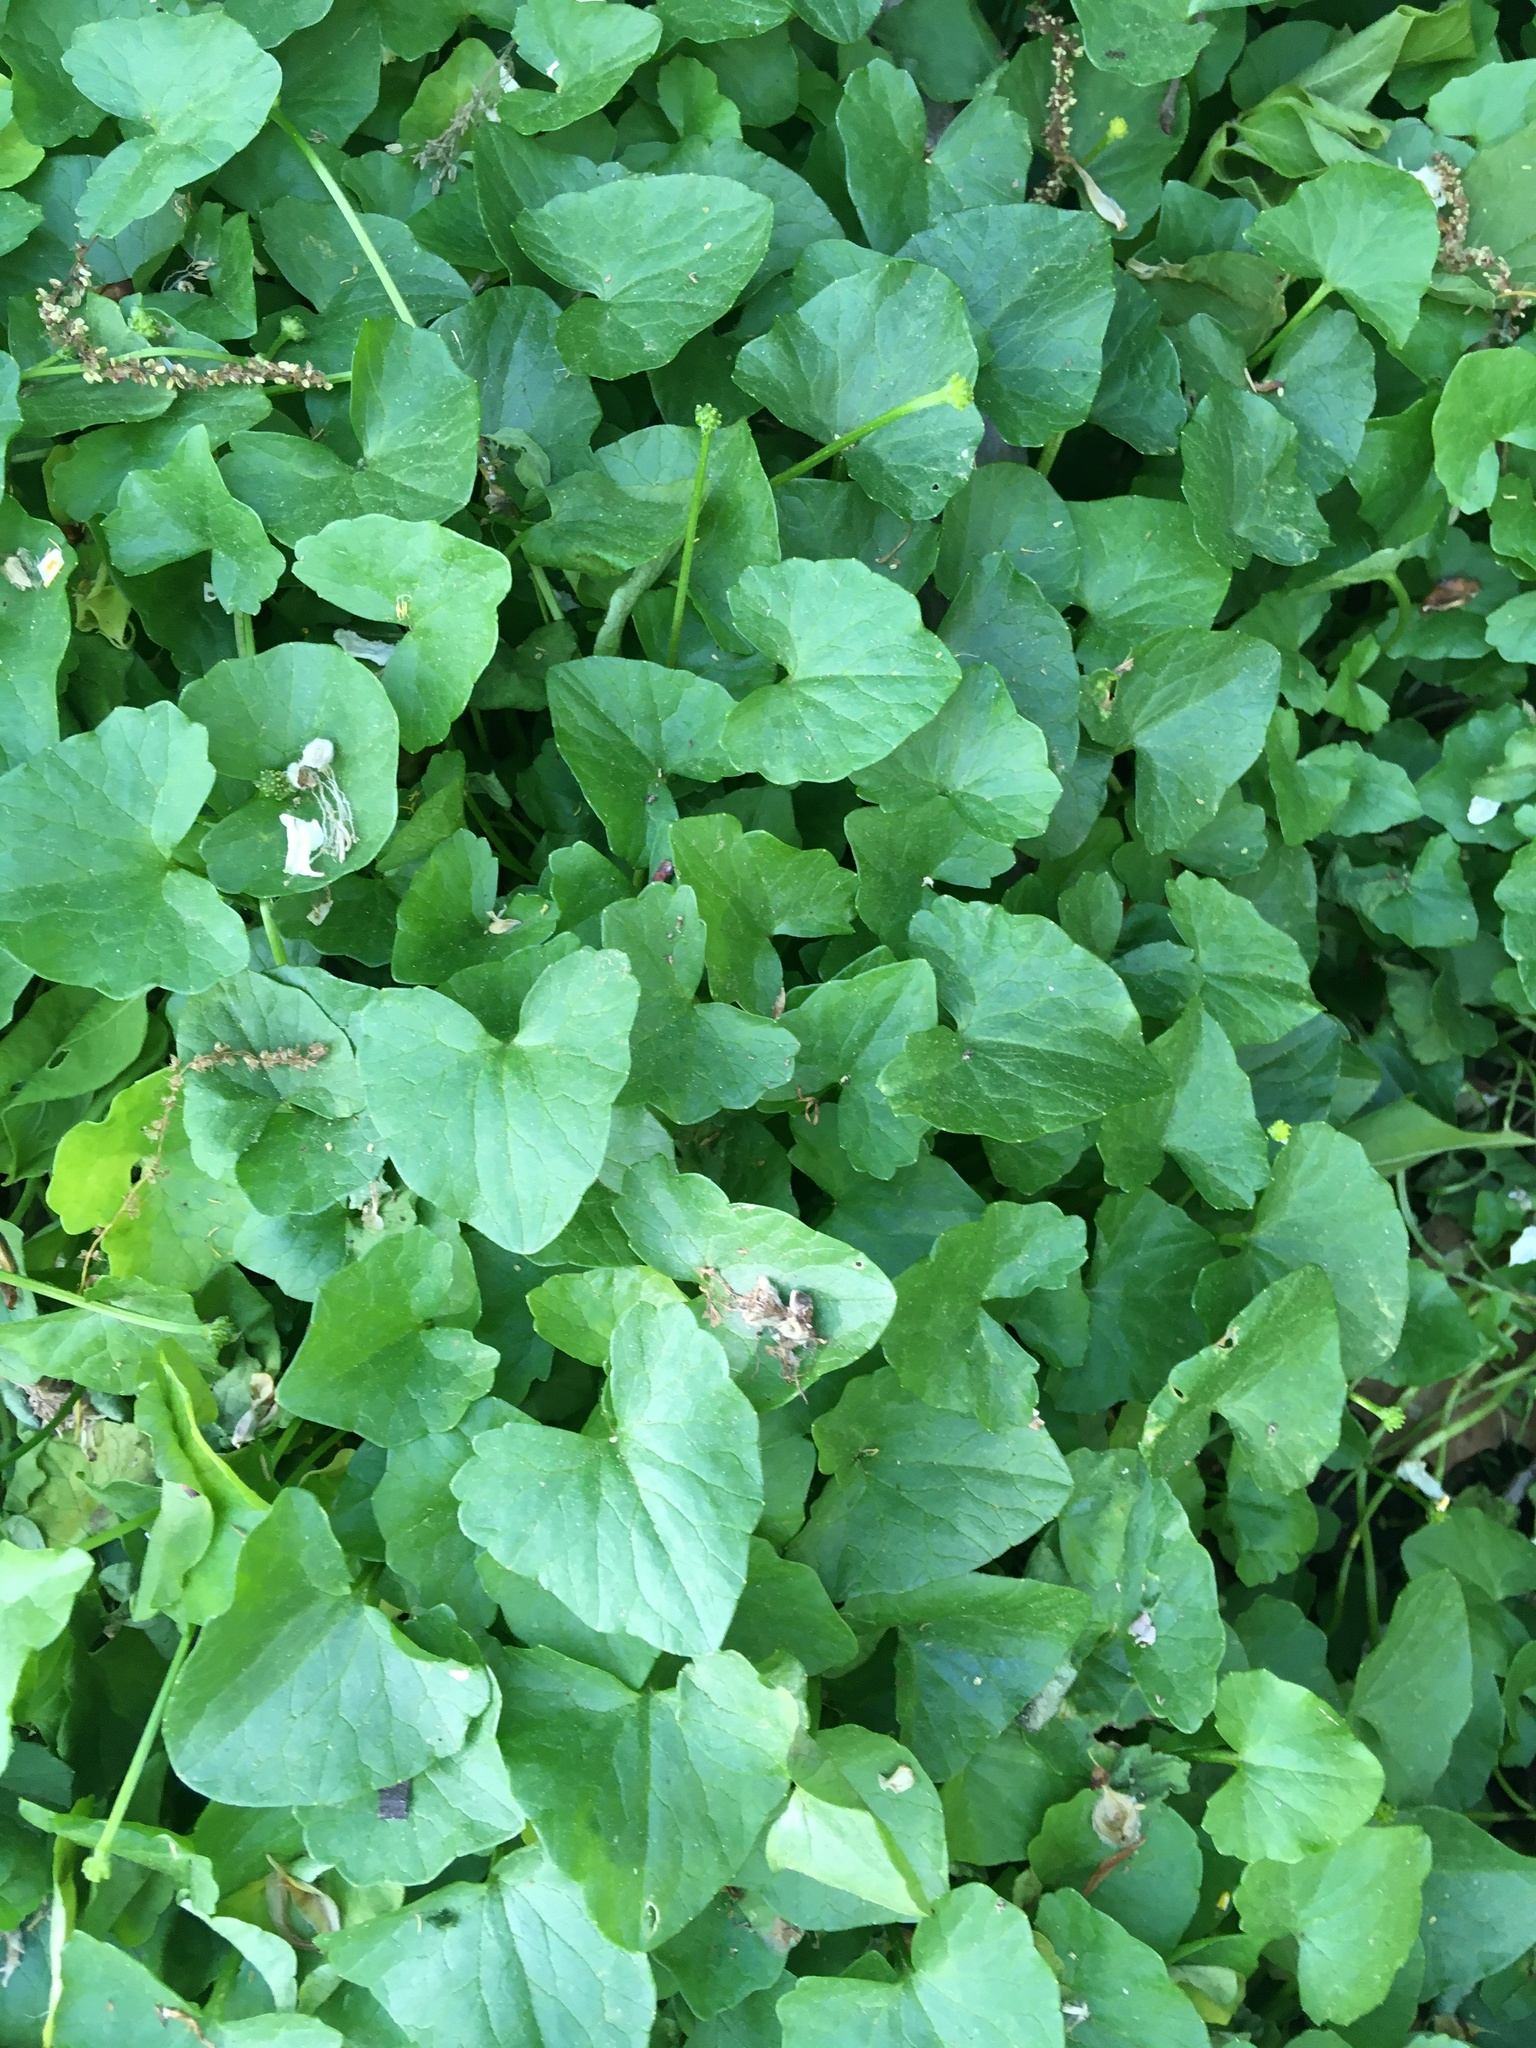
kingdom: Plantae
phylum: Tracheophyta
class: Magnoliopsida
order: Ranunculales
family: Ranunculaceae
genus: Ficaria
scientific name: Ficaria verna
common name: Lesser celandine
